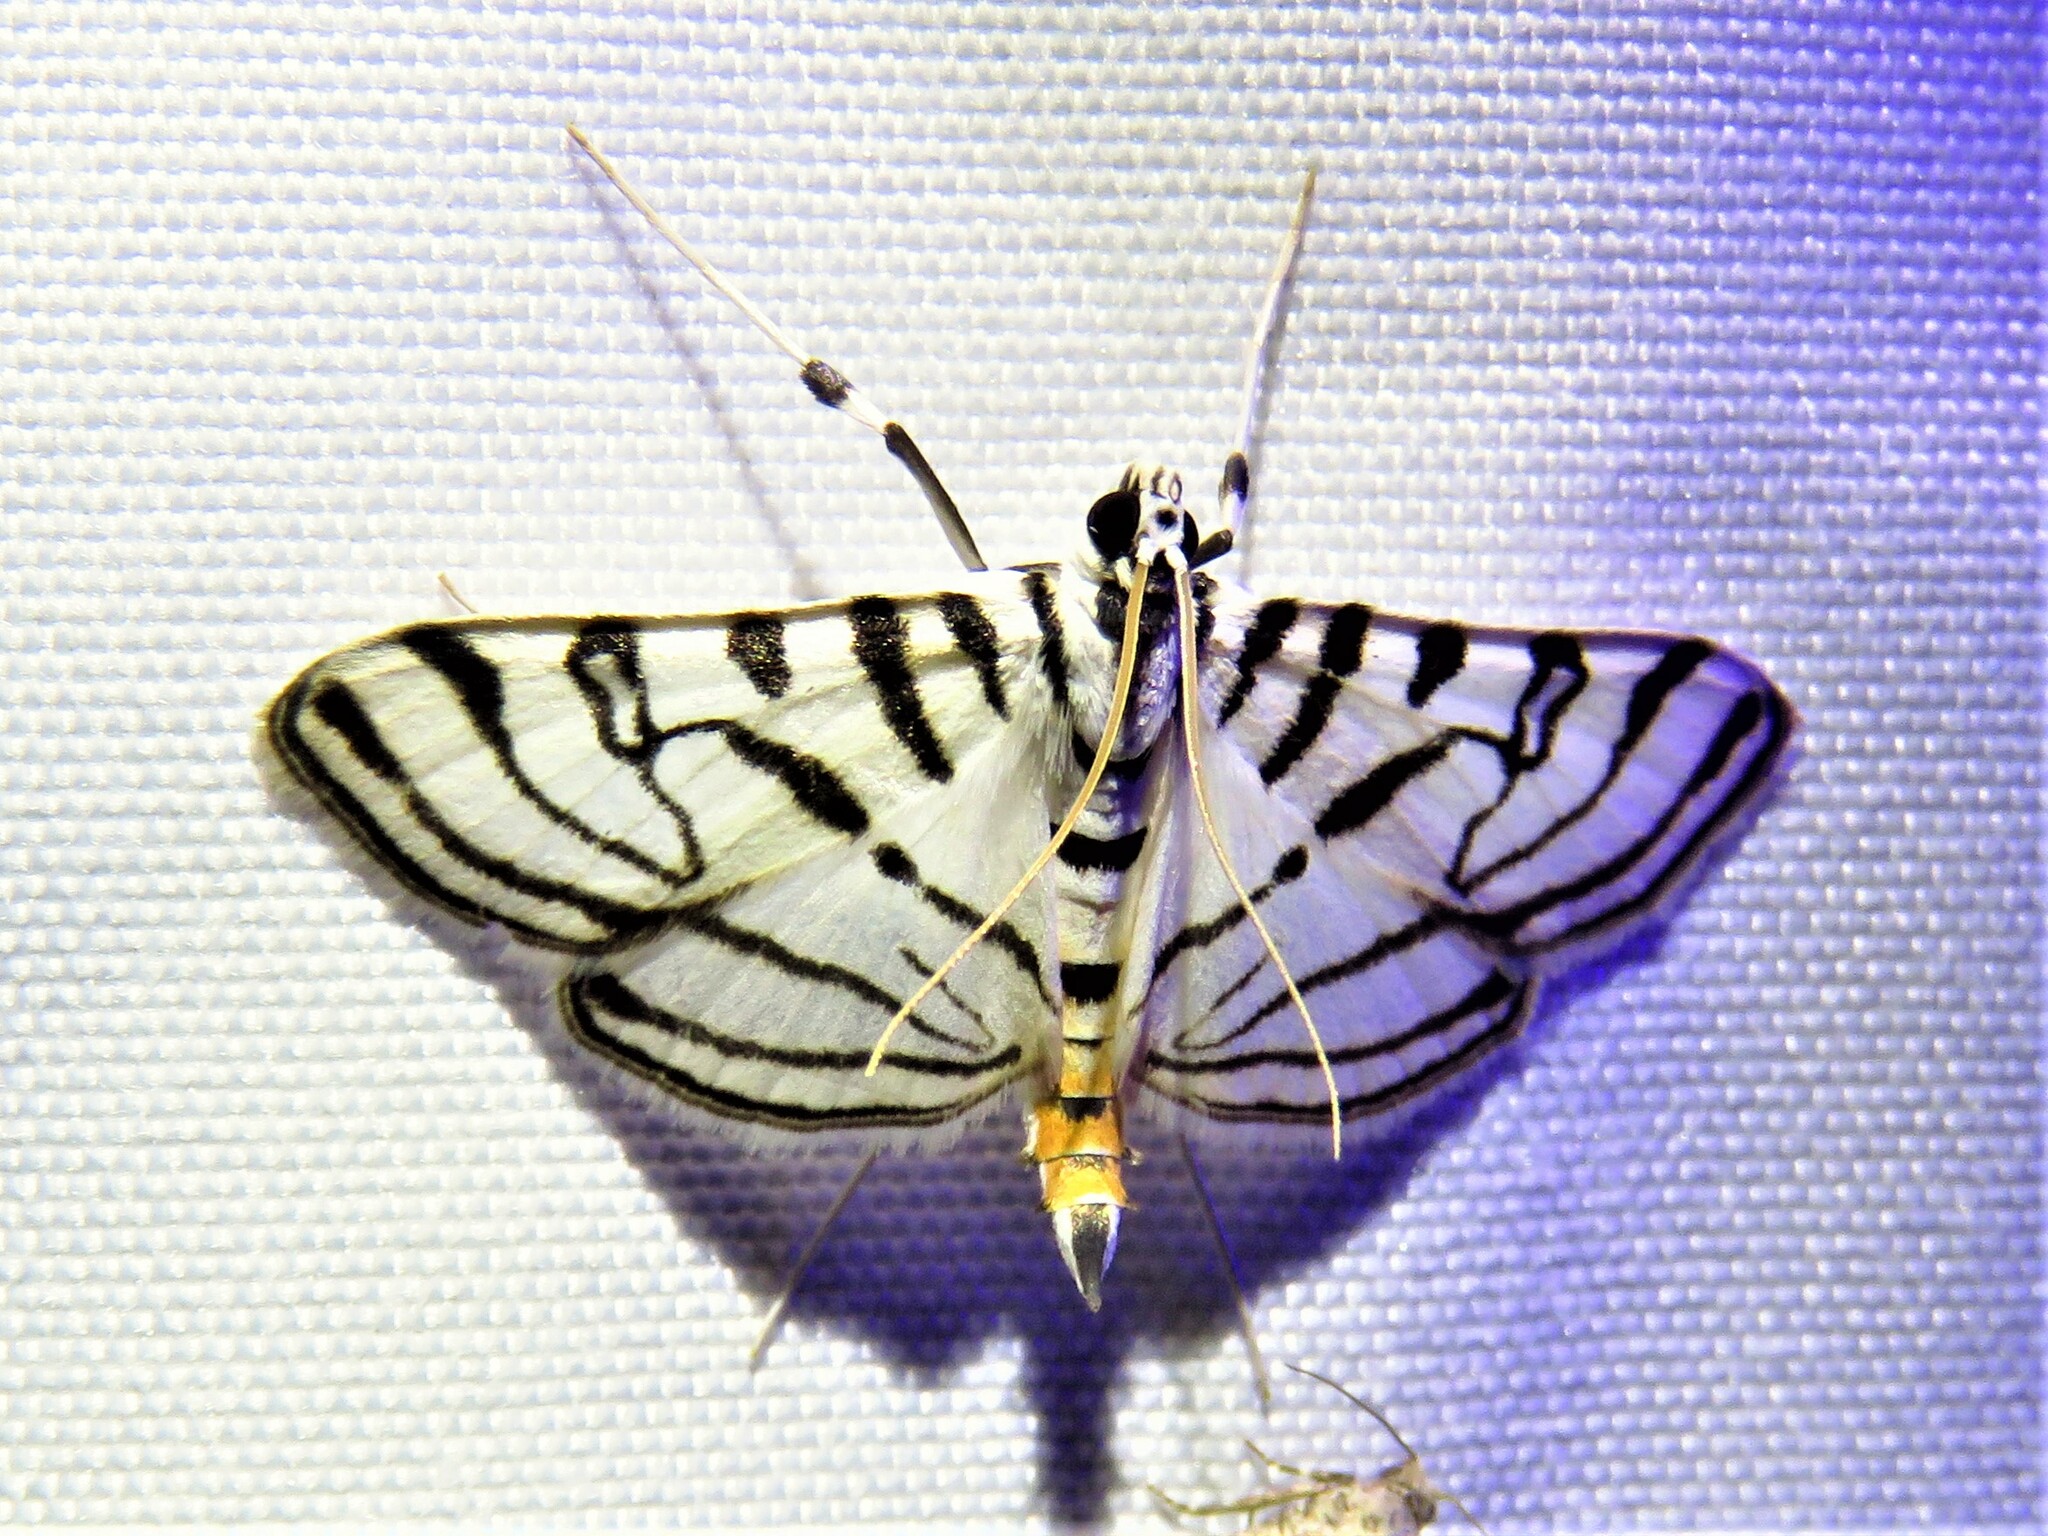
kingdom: Animalia
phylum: Arthropoda
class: Insecta
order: Lepidoptera
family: Crambidae
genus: Conchylodes
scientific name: Conchylodes ovulalis
